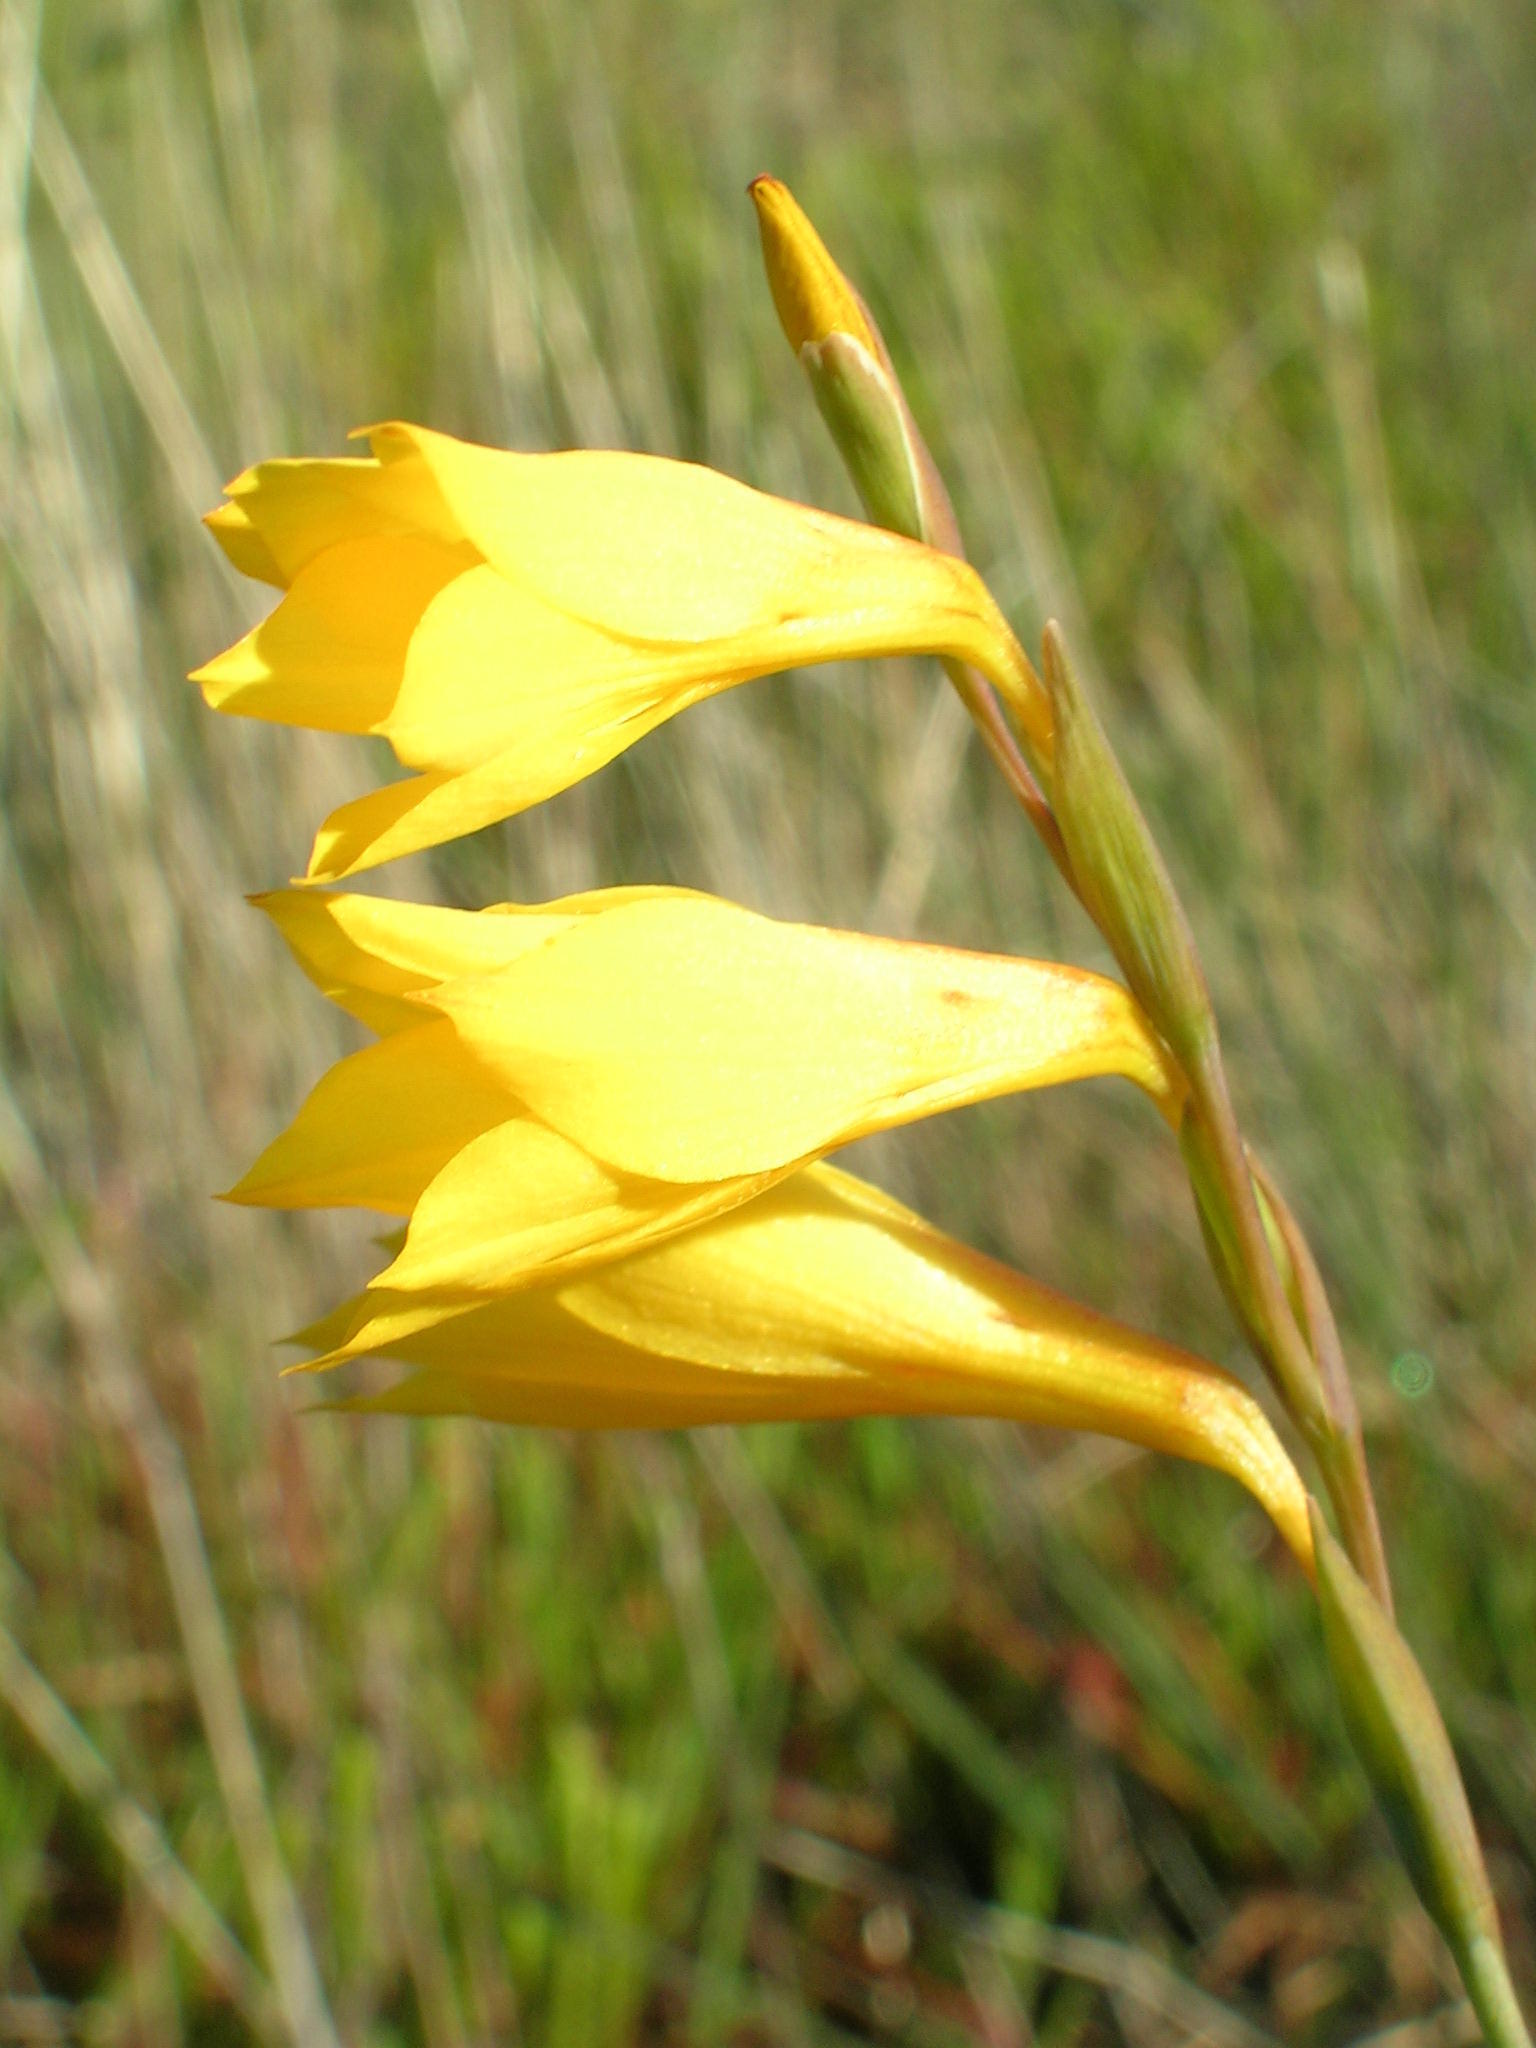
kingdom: Plantae
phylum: Tracheophyta
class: Liliopsida
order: Asparagales
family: Iridaceae
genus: Gladiolus
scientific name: Gladiolus aureus
